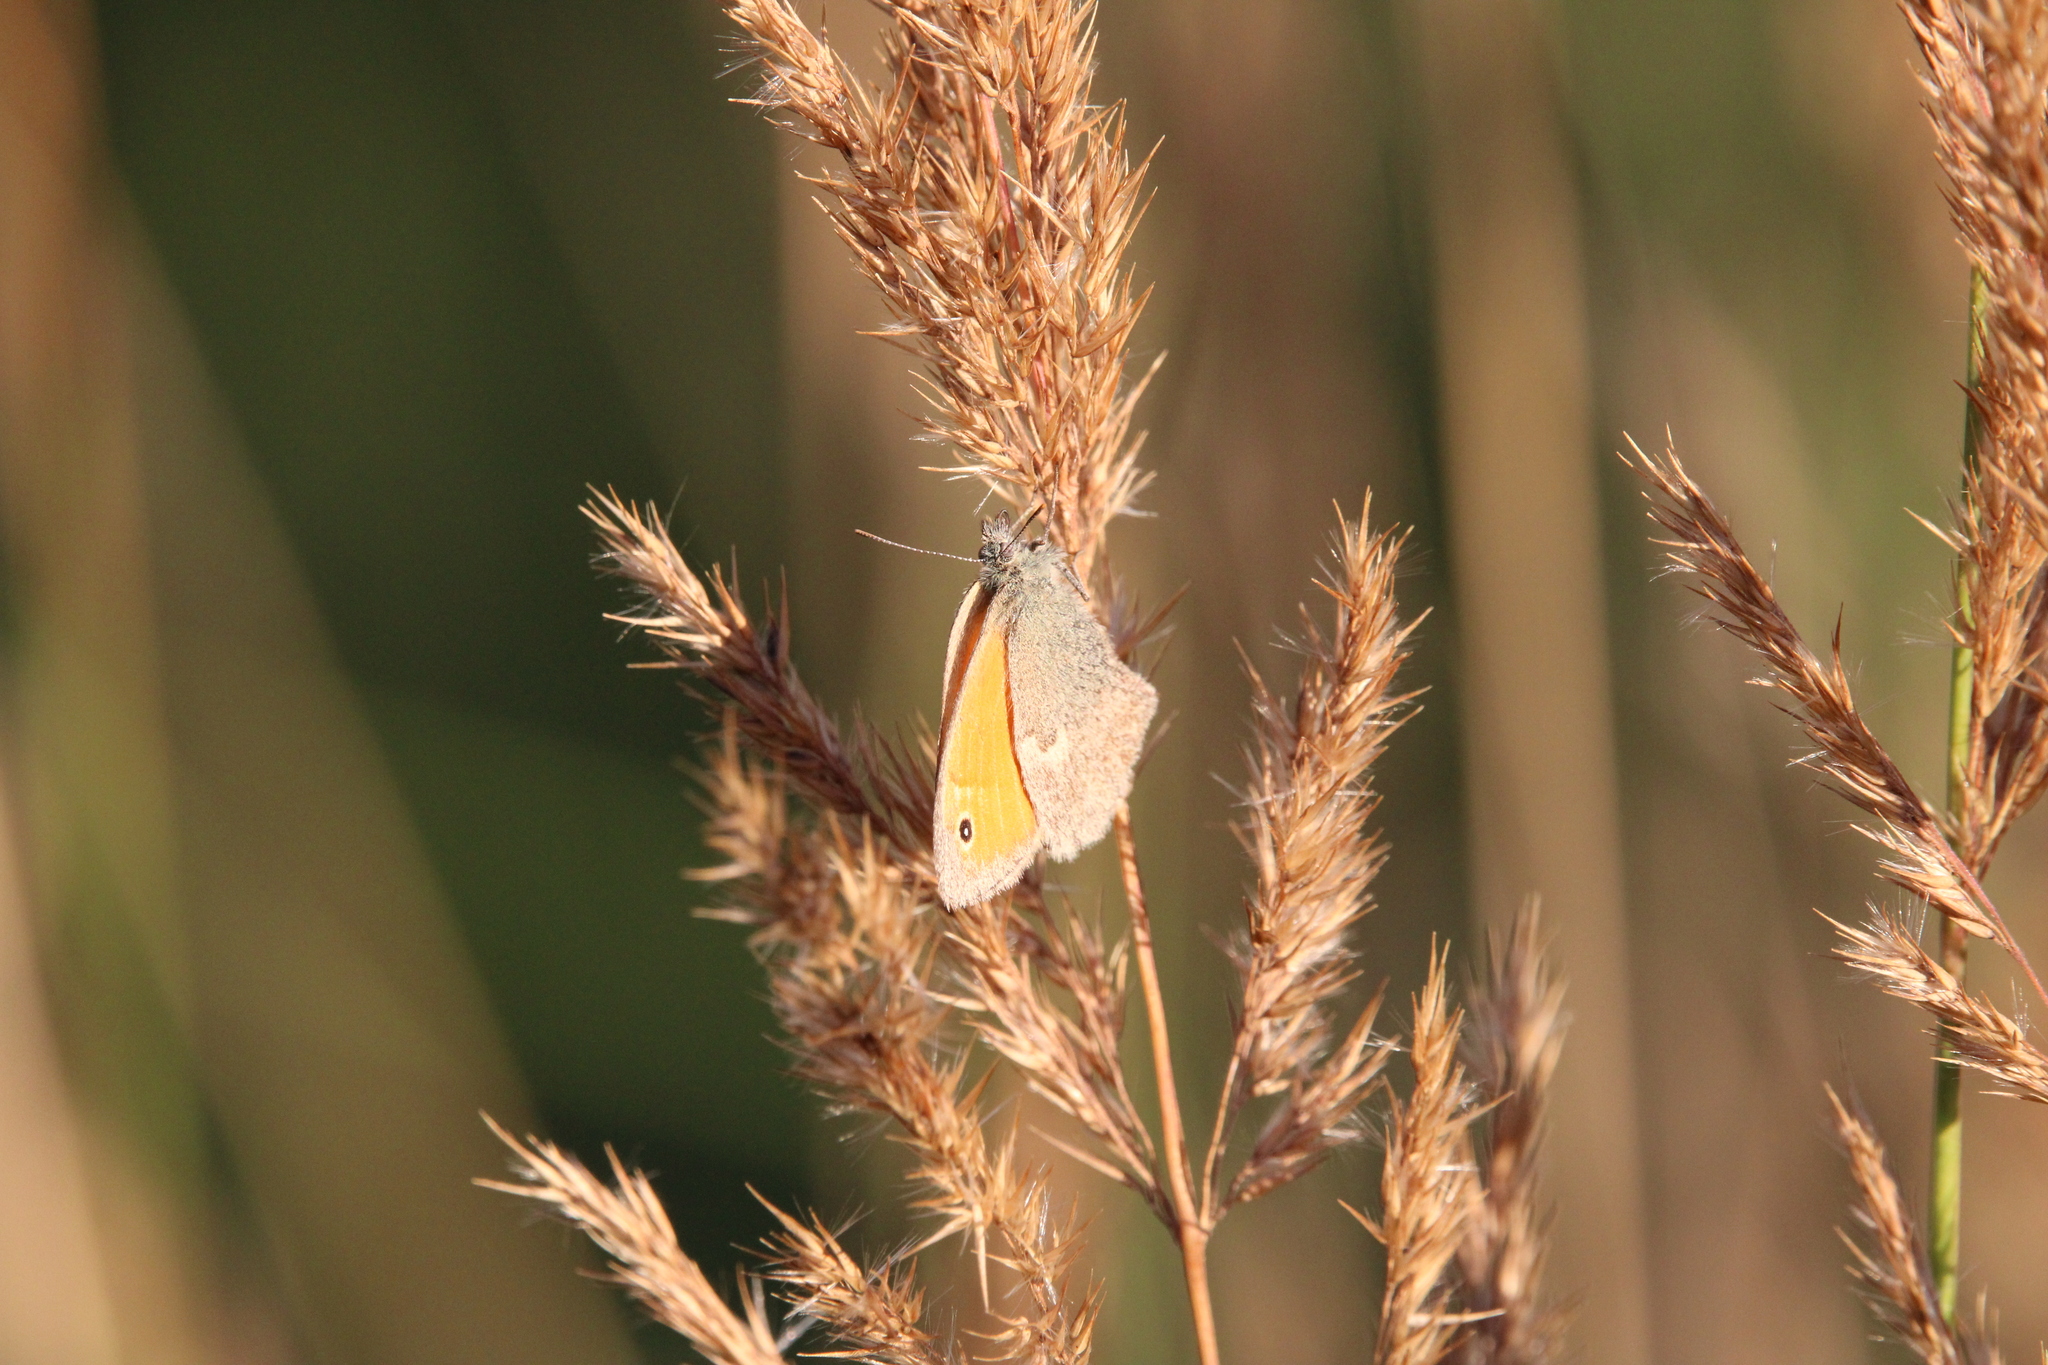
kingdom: Animalia
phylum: Arthropoda
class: Insecta
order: Lepidoptera
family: Nymphalidae
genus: Coenonympha
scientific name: Coenonympha pamphilus
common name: Small heath
